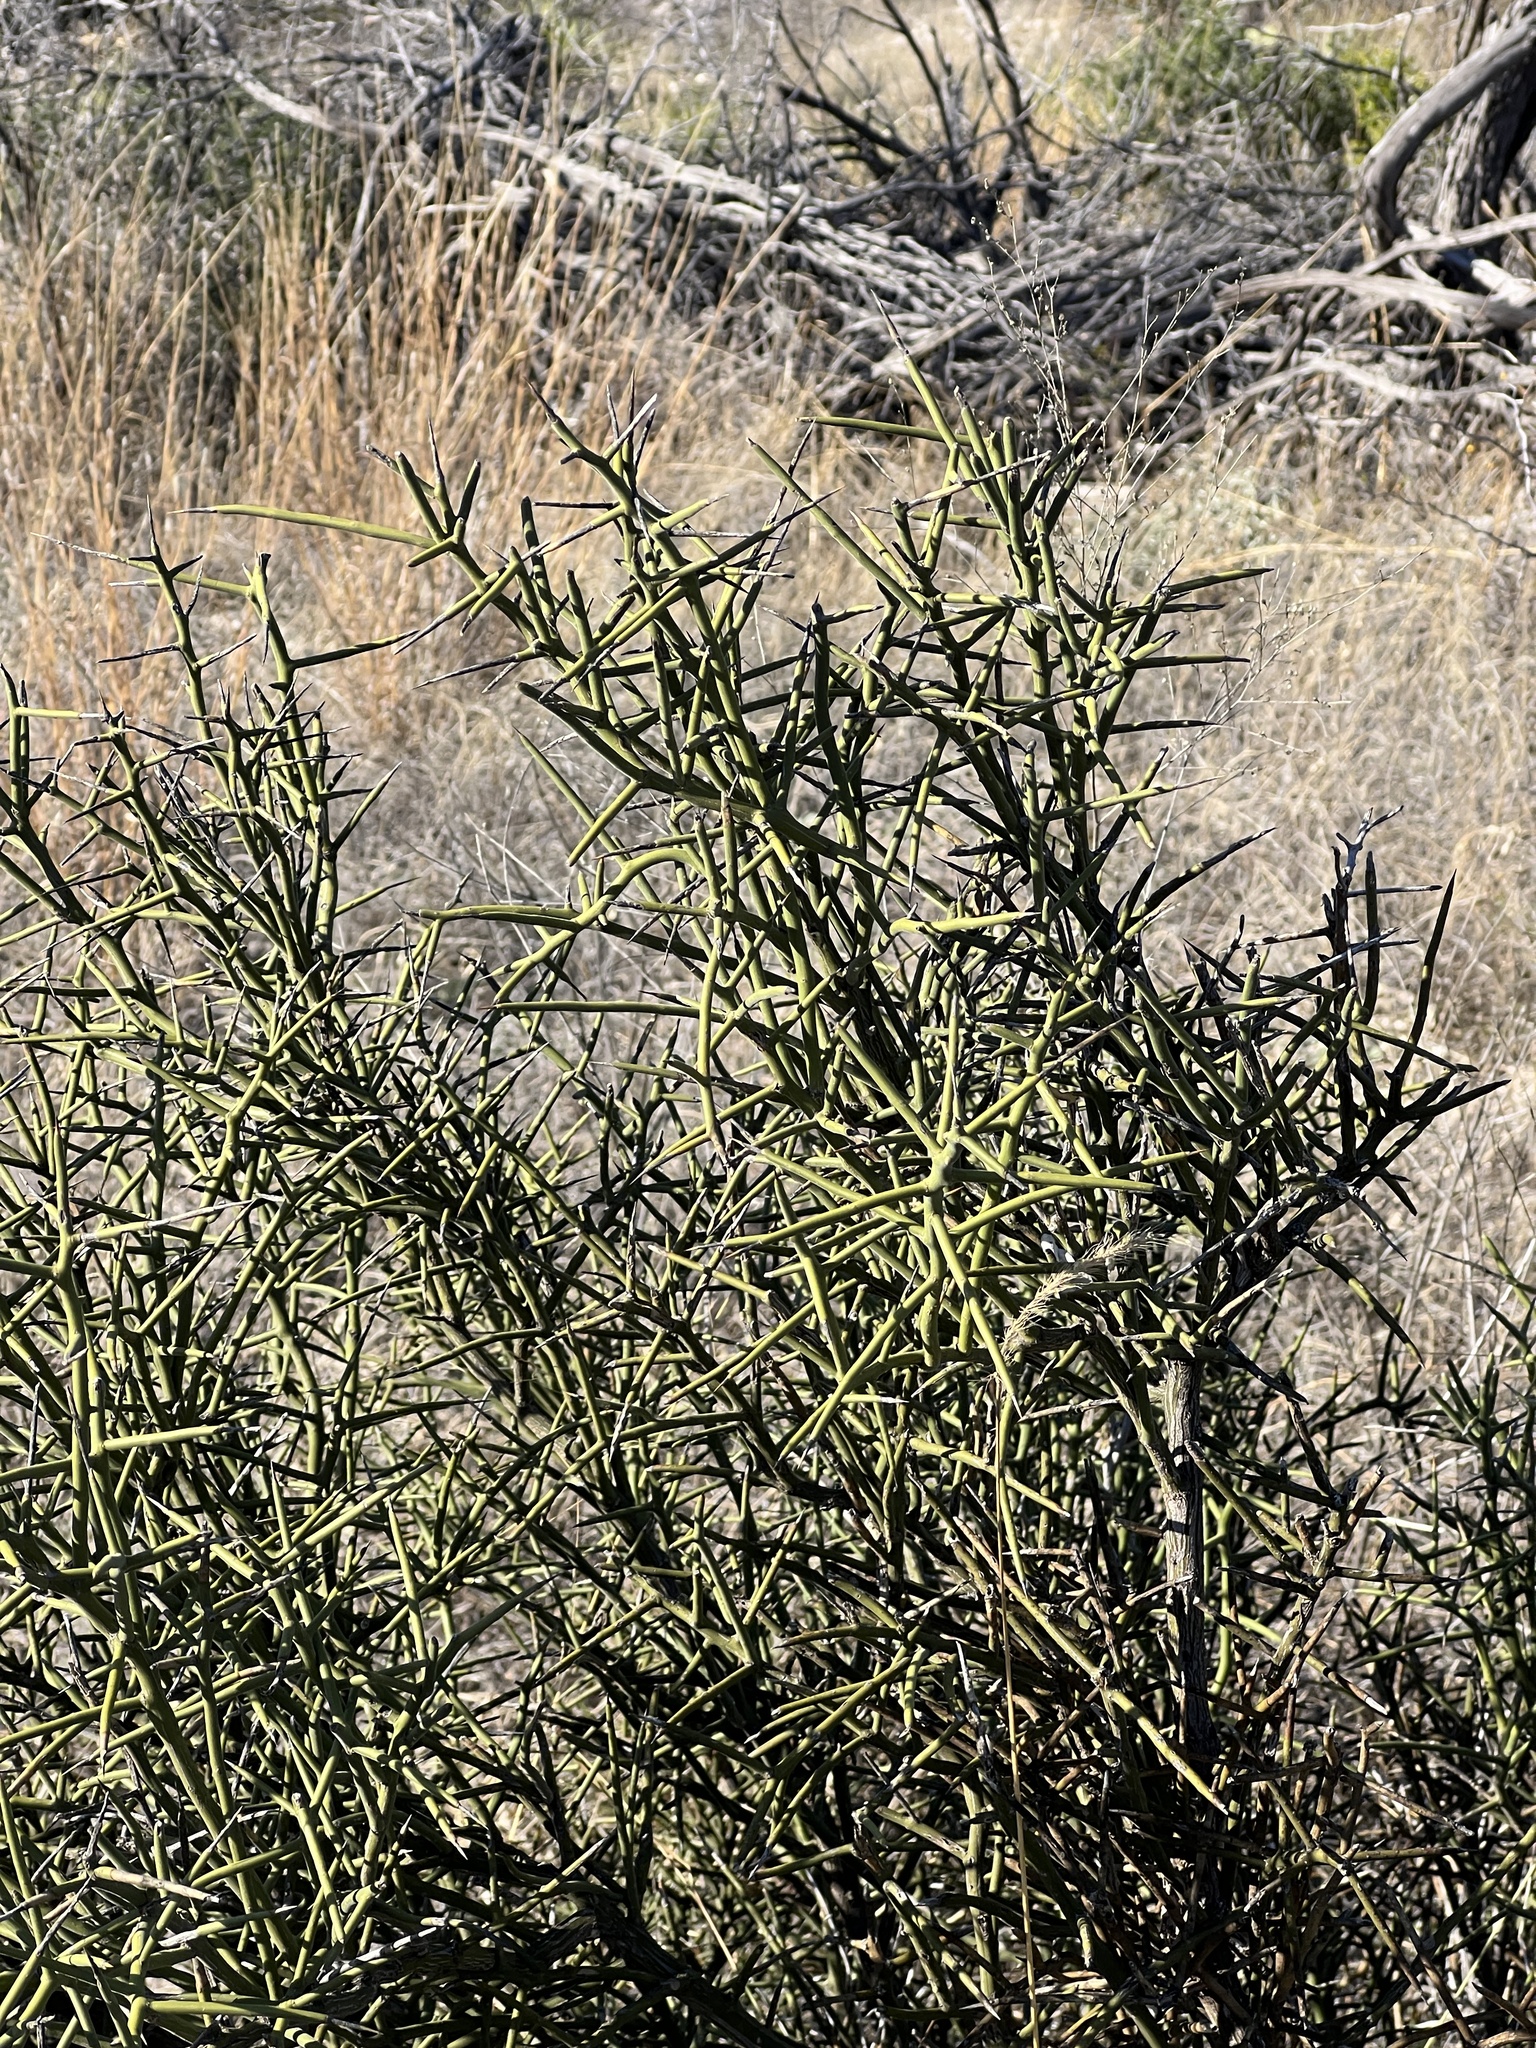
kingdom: Plantae
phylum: Tracheophyta
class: Magnoliopsida
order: Brassicales
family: Koeberliniaceae
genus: Koeberlinia
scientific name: Koeberlinia spinosa
